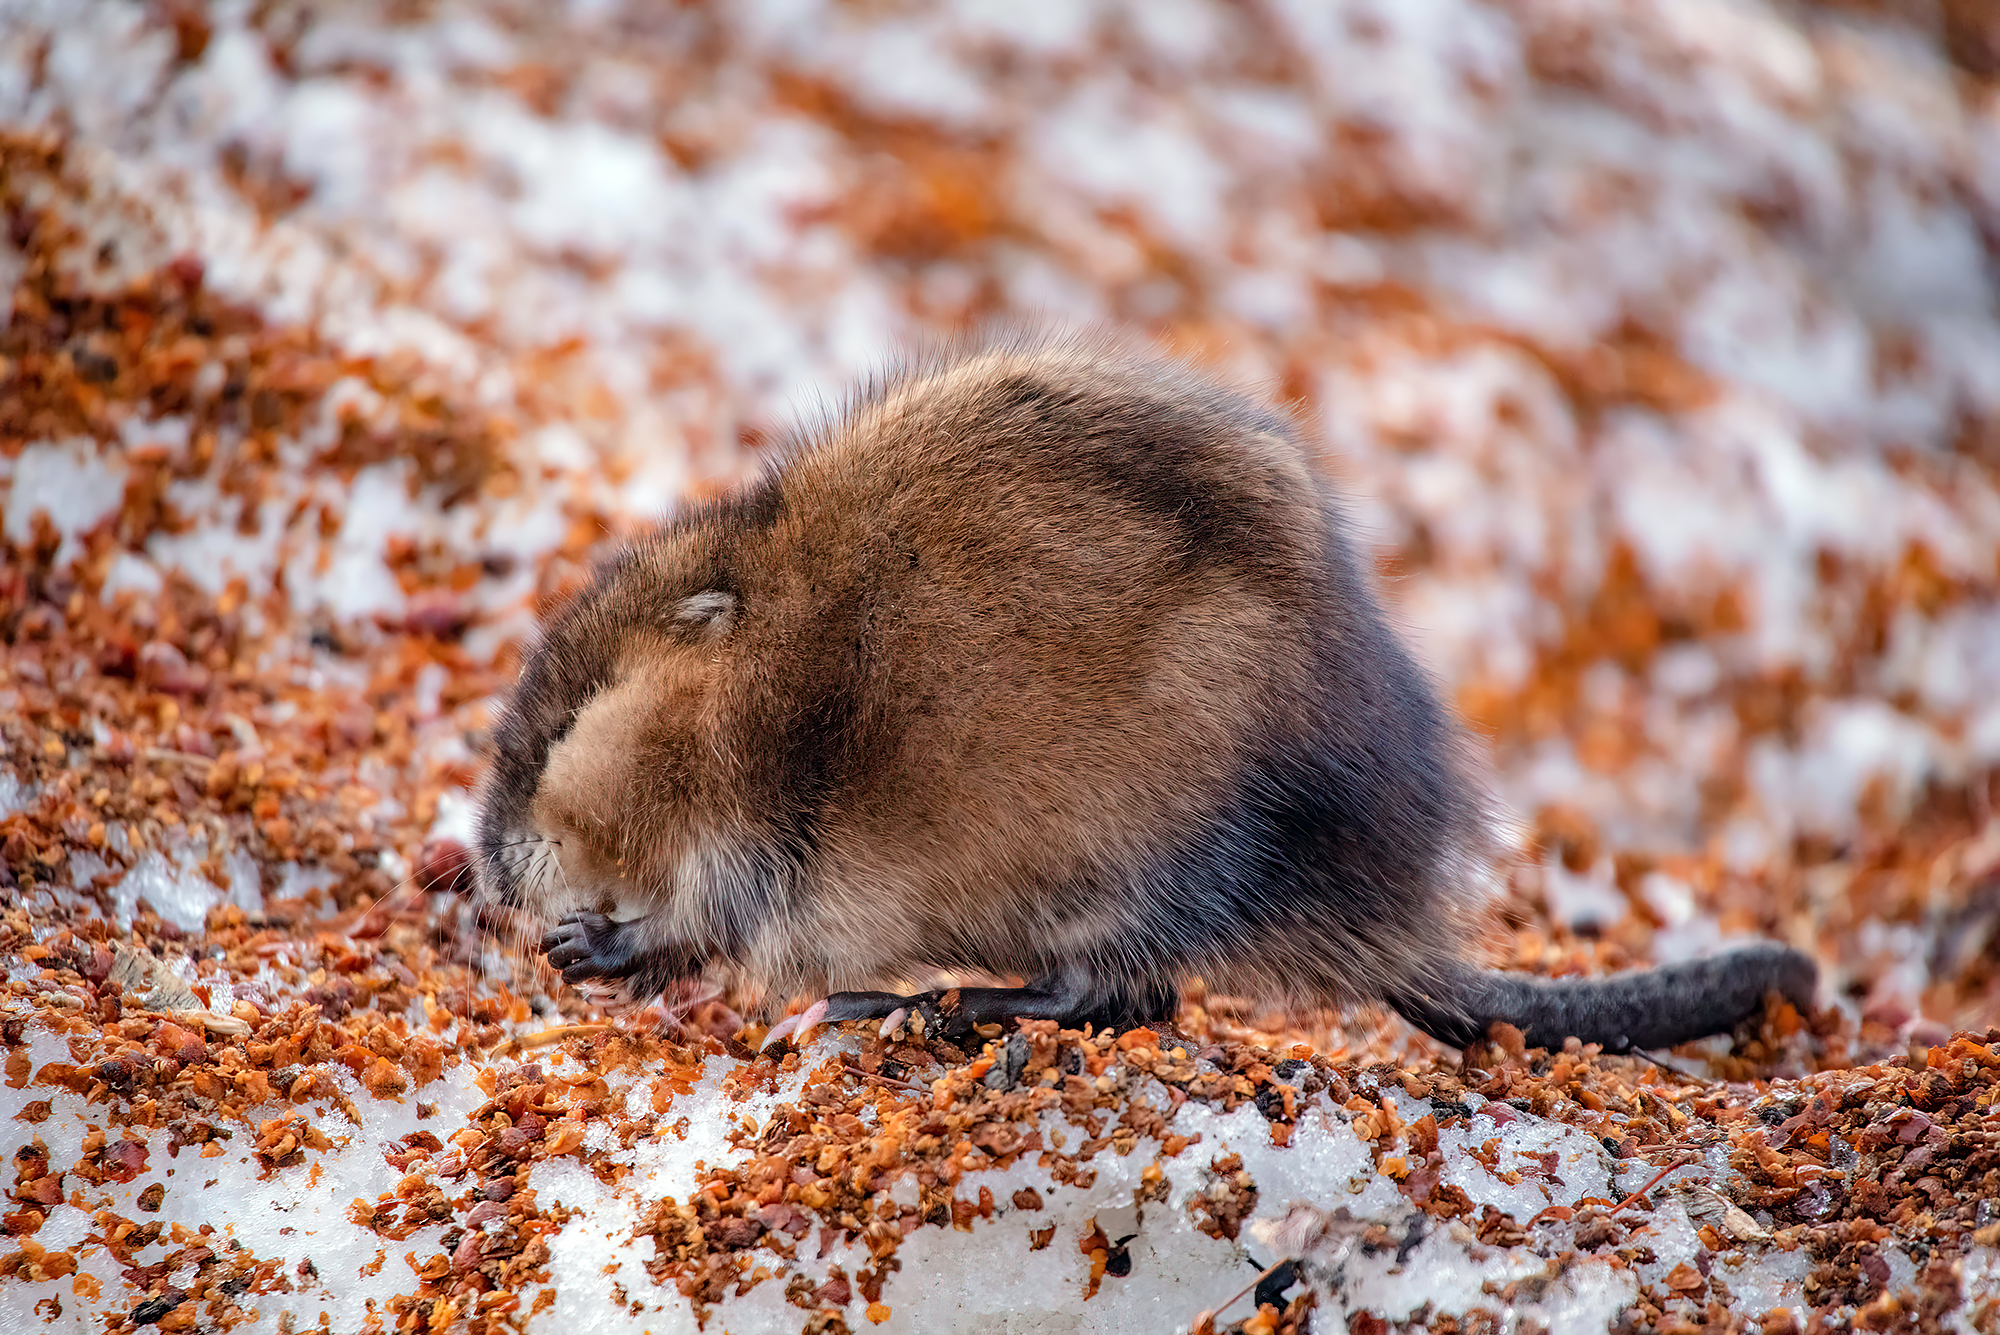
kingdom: Animalia
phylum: Chordata
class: Mammalia
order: Rodentia
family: Cricetidae
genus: Ondatra
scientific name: Ondatra zibethicus
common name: Muskrat
